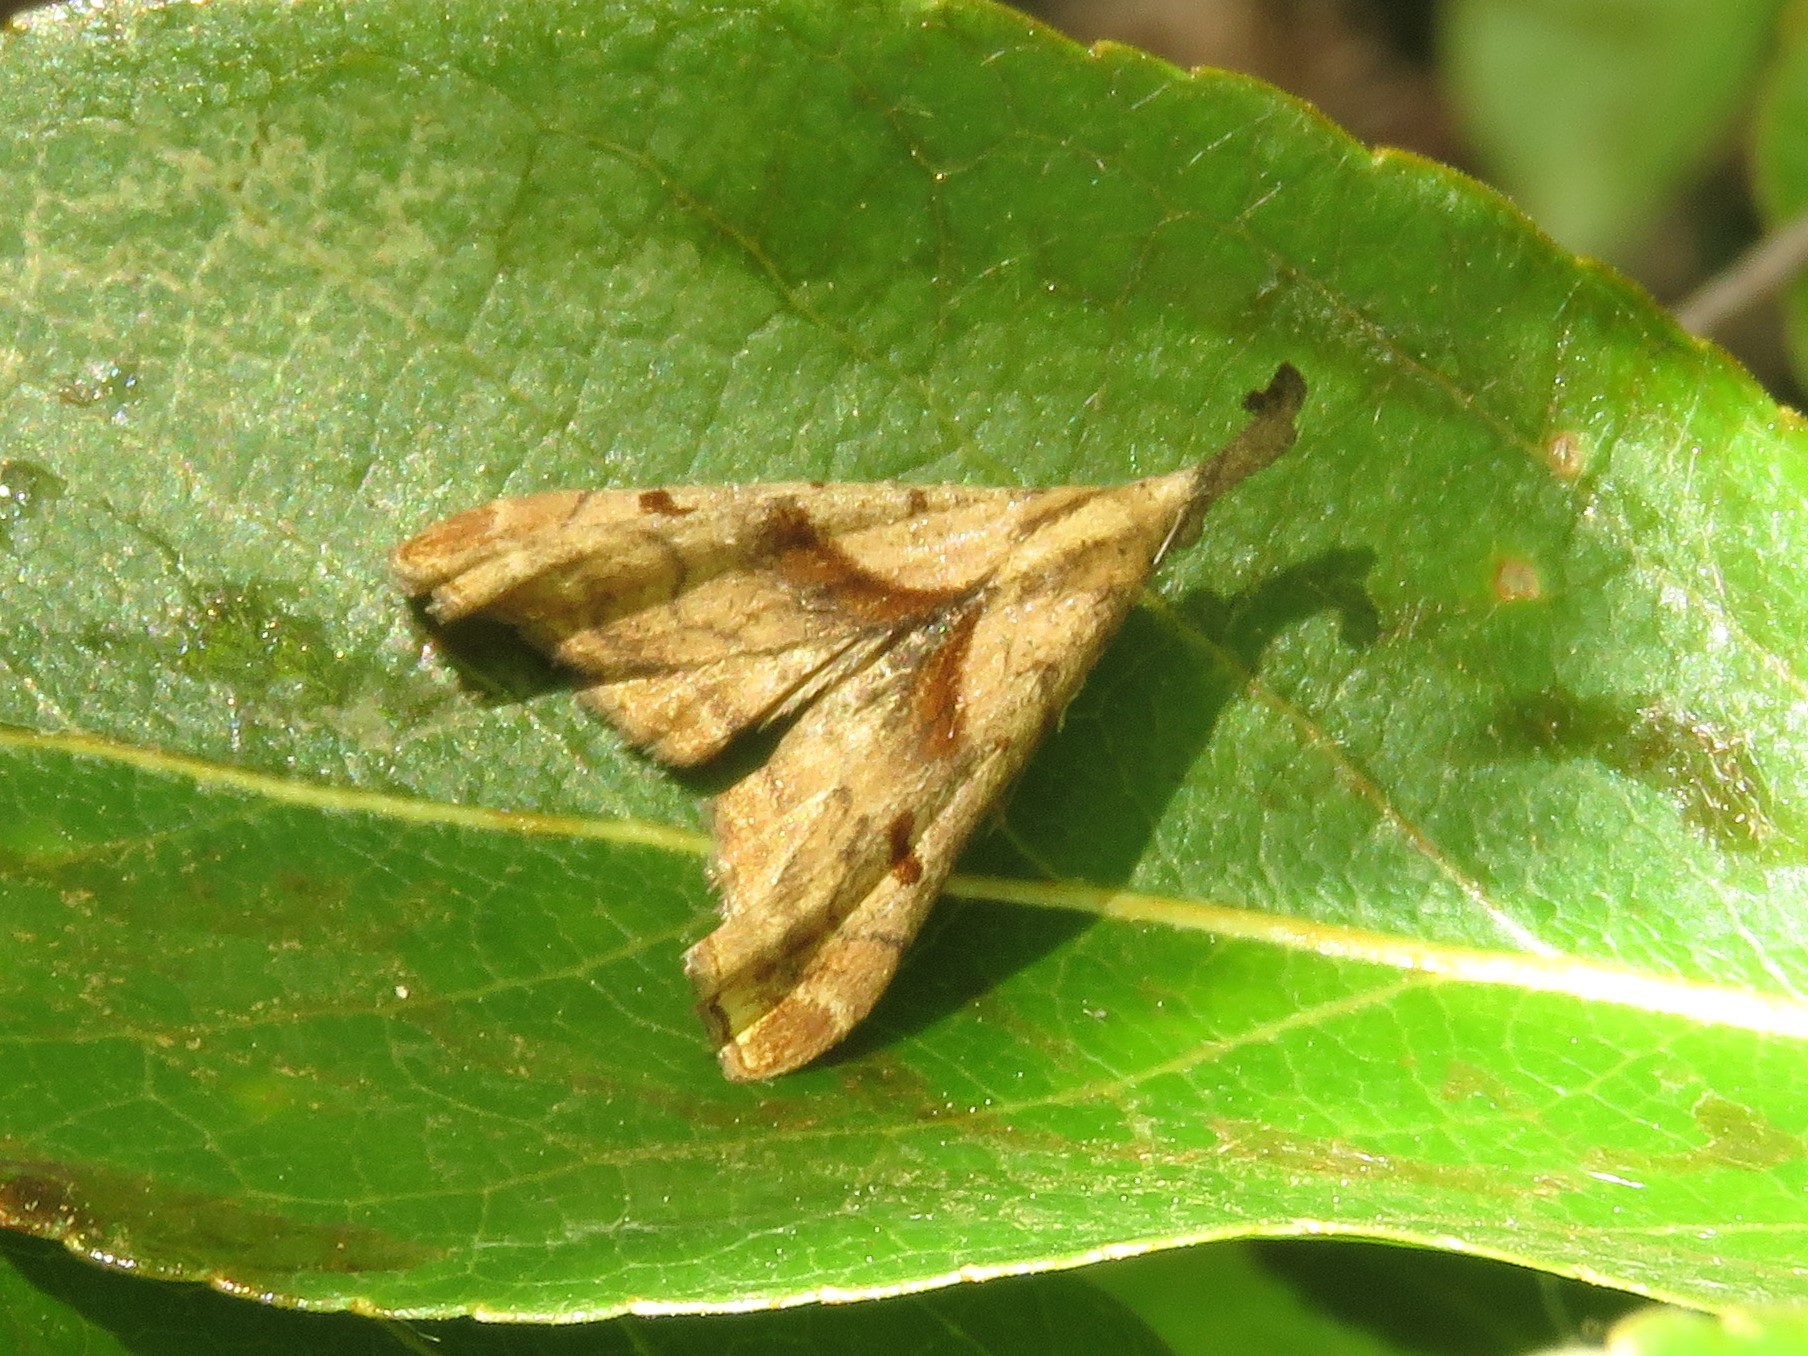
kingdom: Animalia
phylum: Arthropoda
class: Insecta
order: Lepidoptera
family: Erebidae
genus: Palthis
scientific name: Palthis angulalis
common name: Dark-spotted palthis moth
